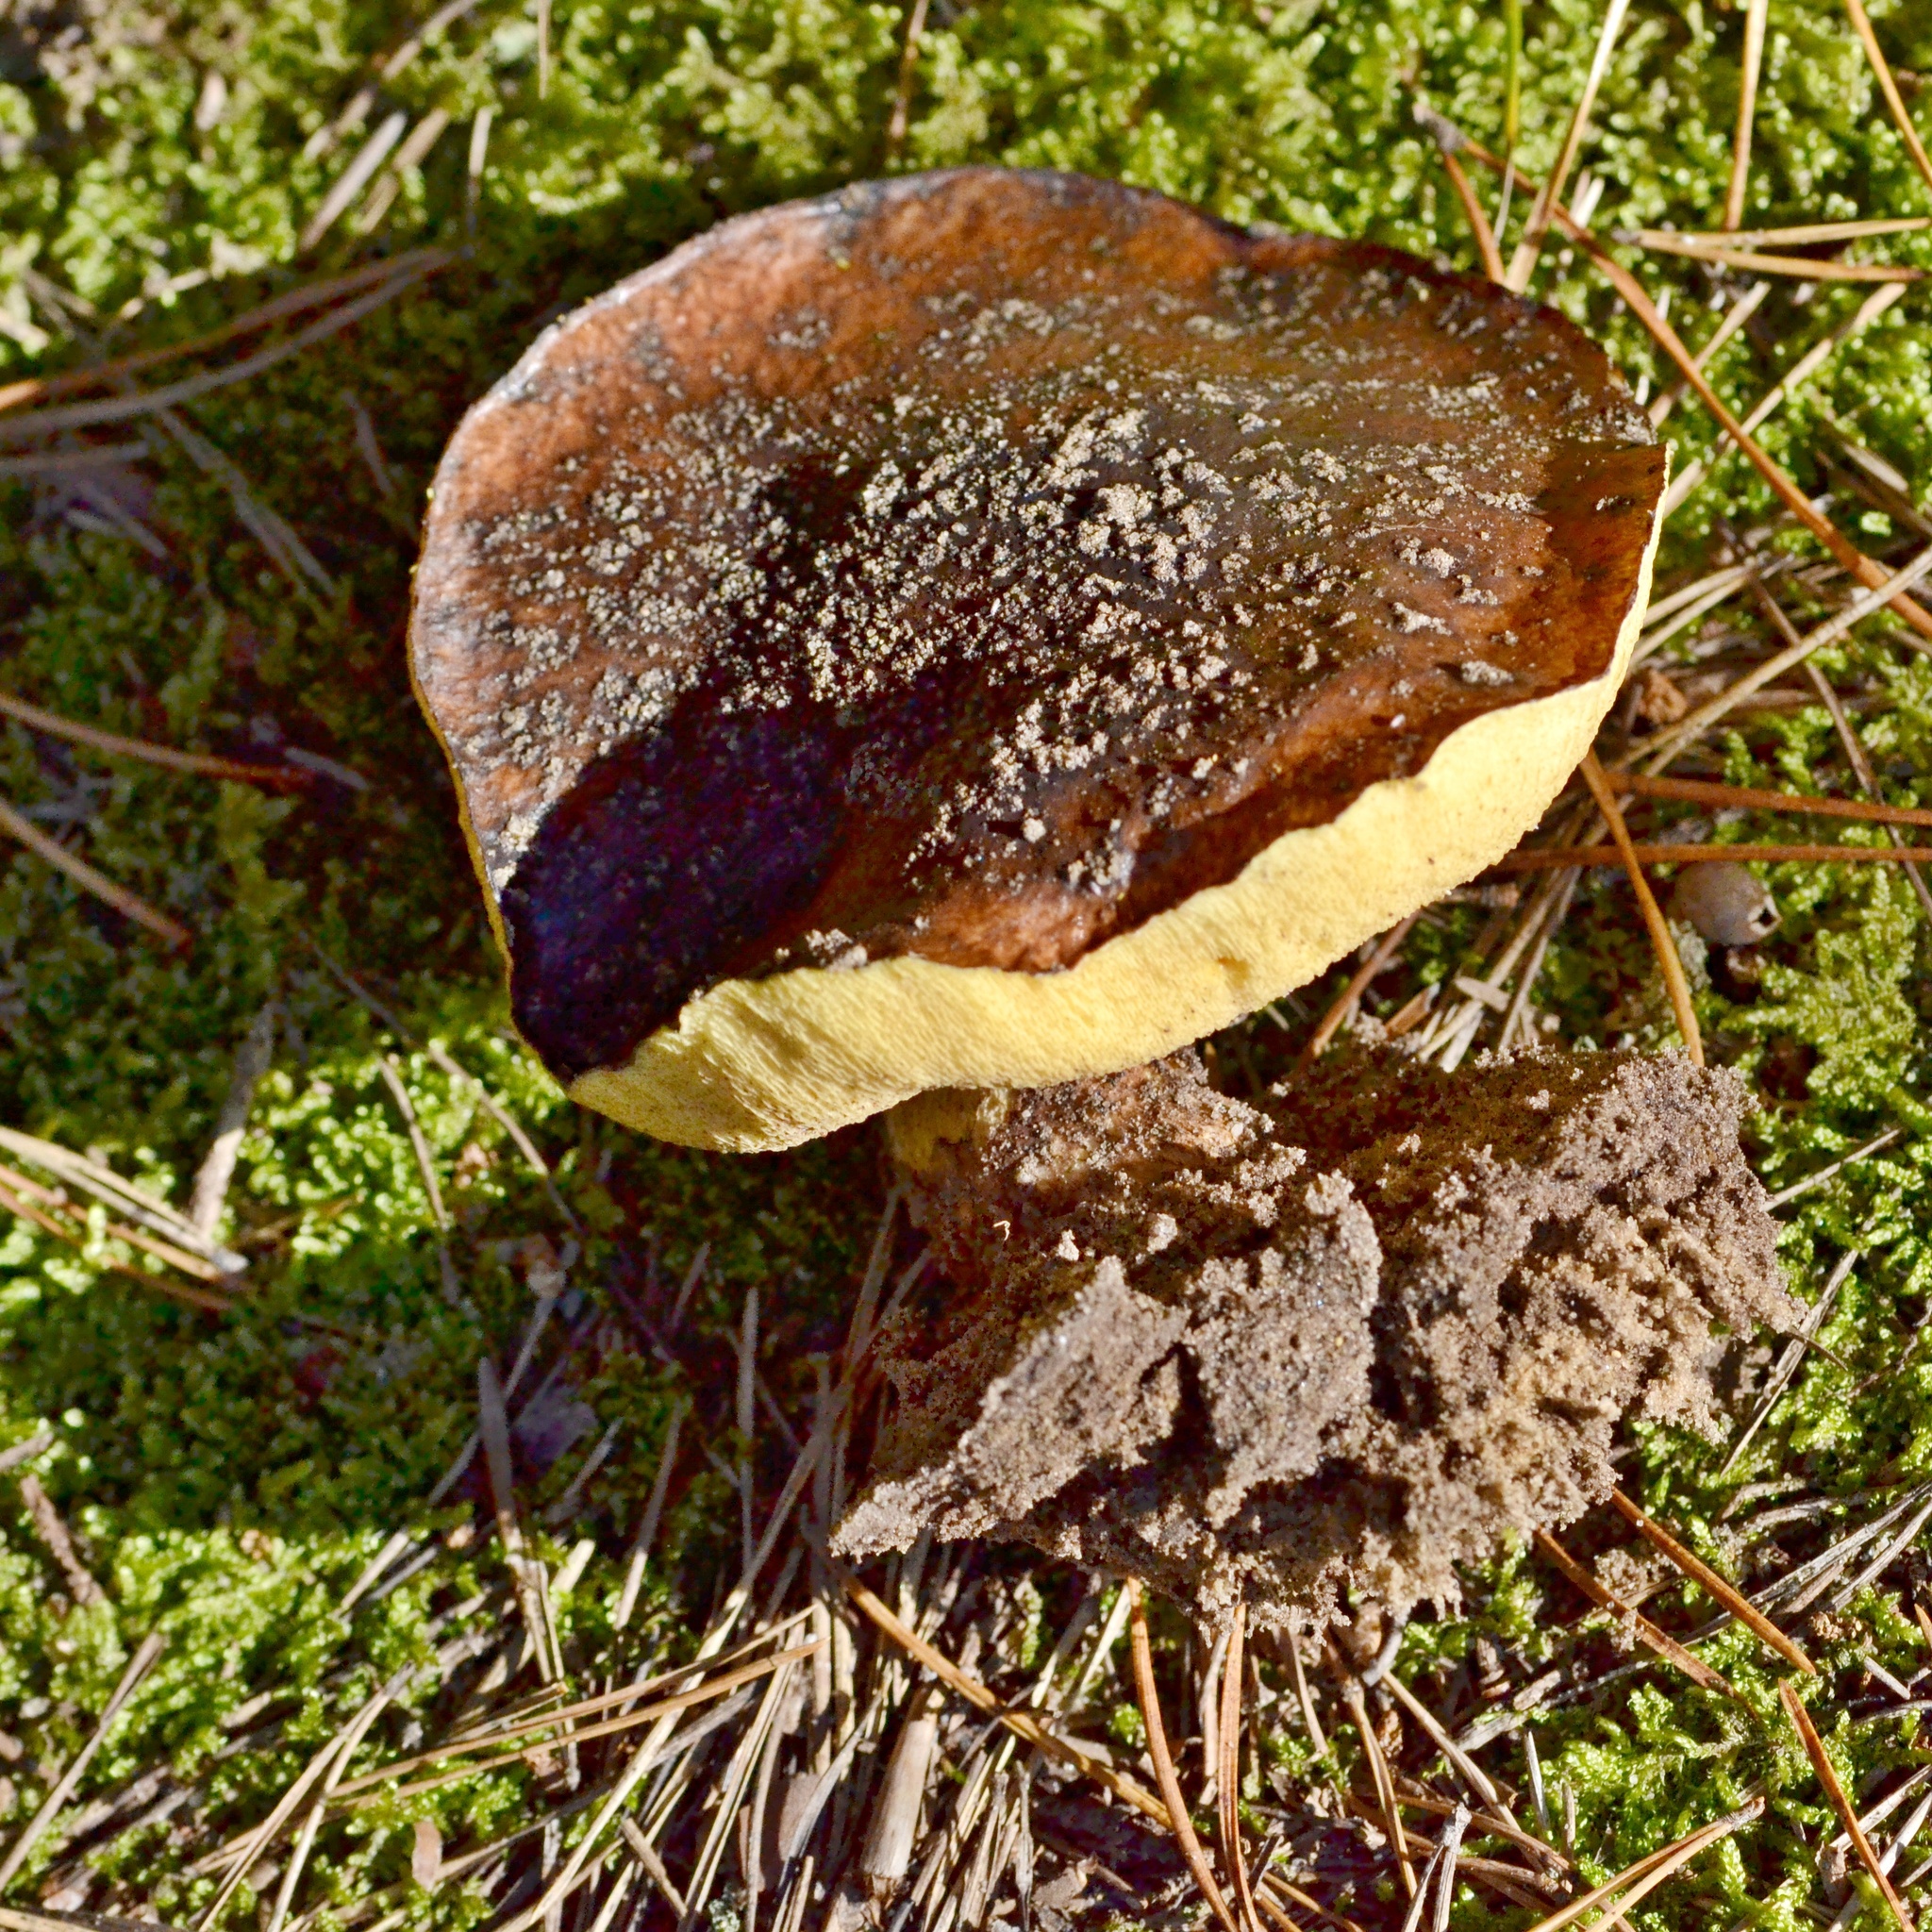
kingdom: Fungi
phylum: Basidiomycota
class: Agaricomycetes
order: Boletales
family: Suillaceae
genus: Suillus
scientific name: Suillus luteus
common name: Slippery jack
